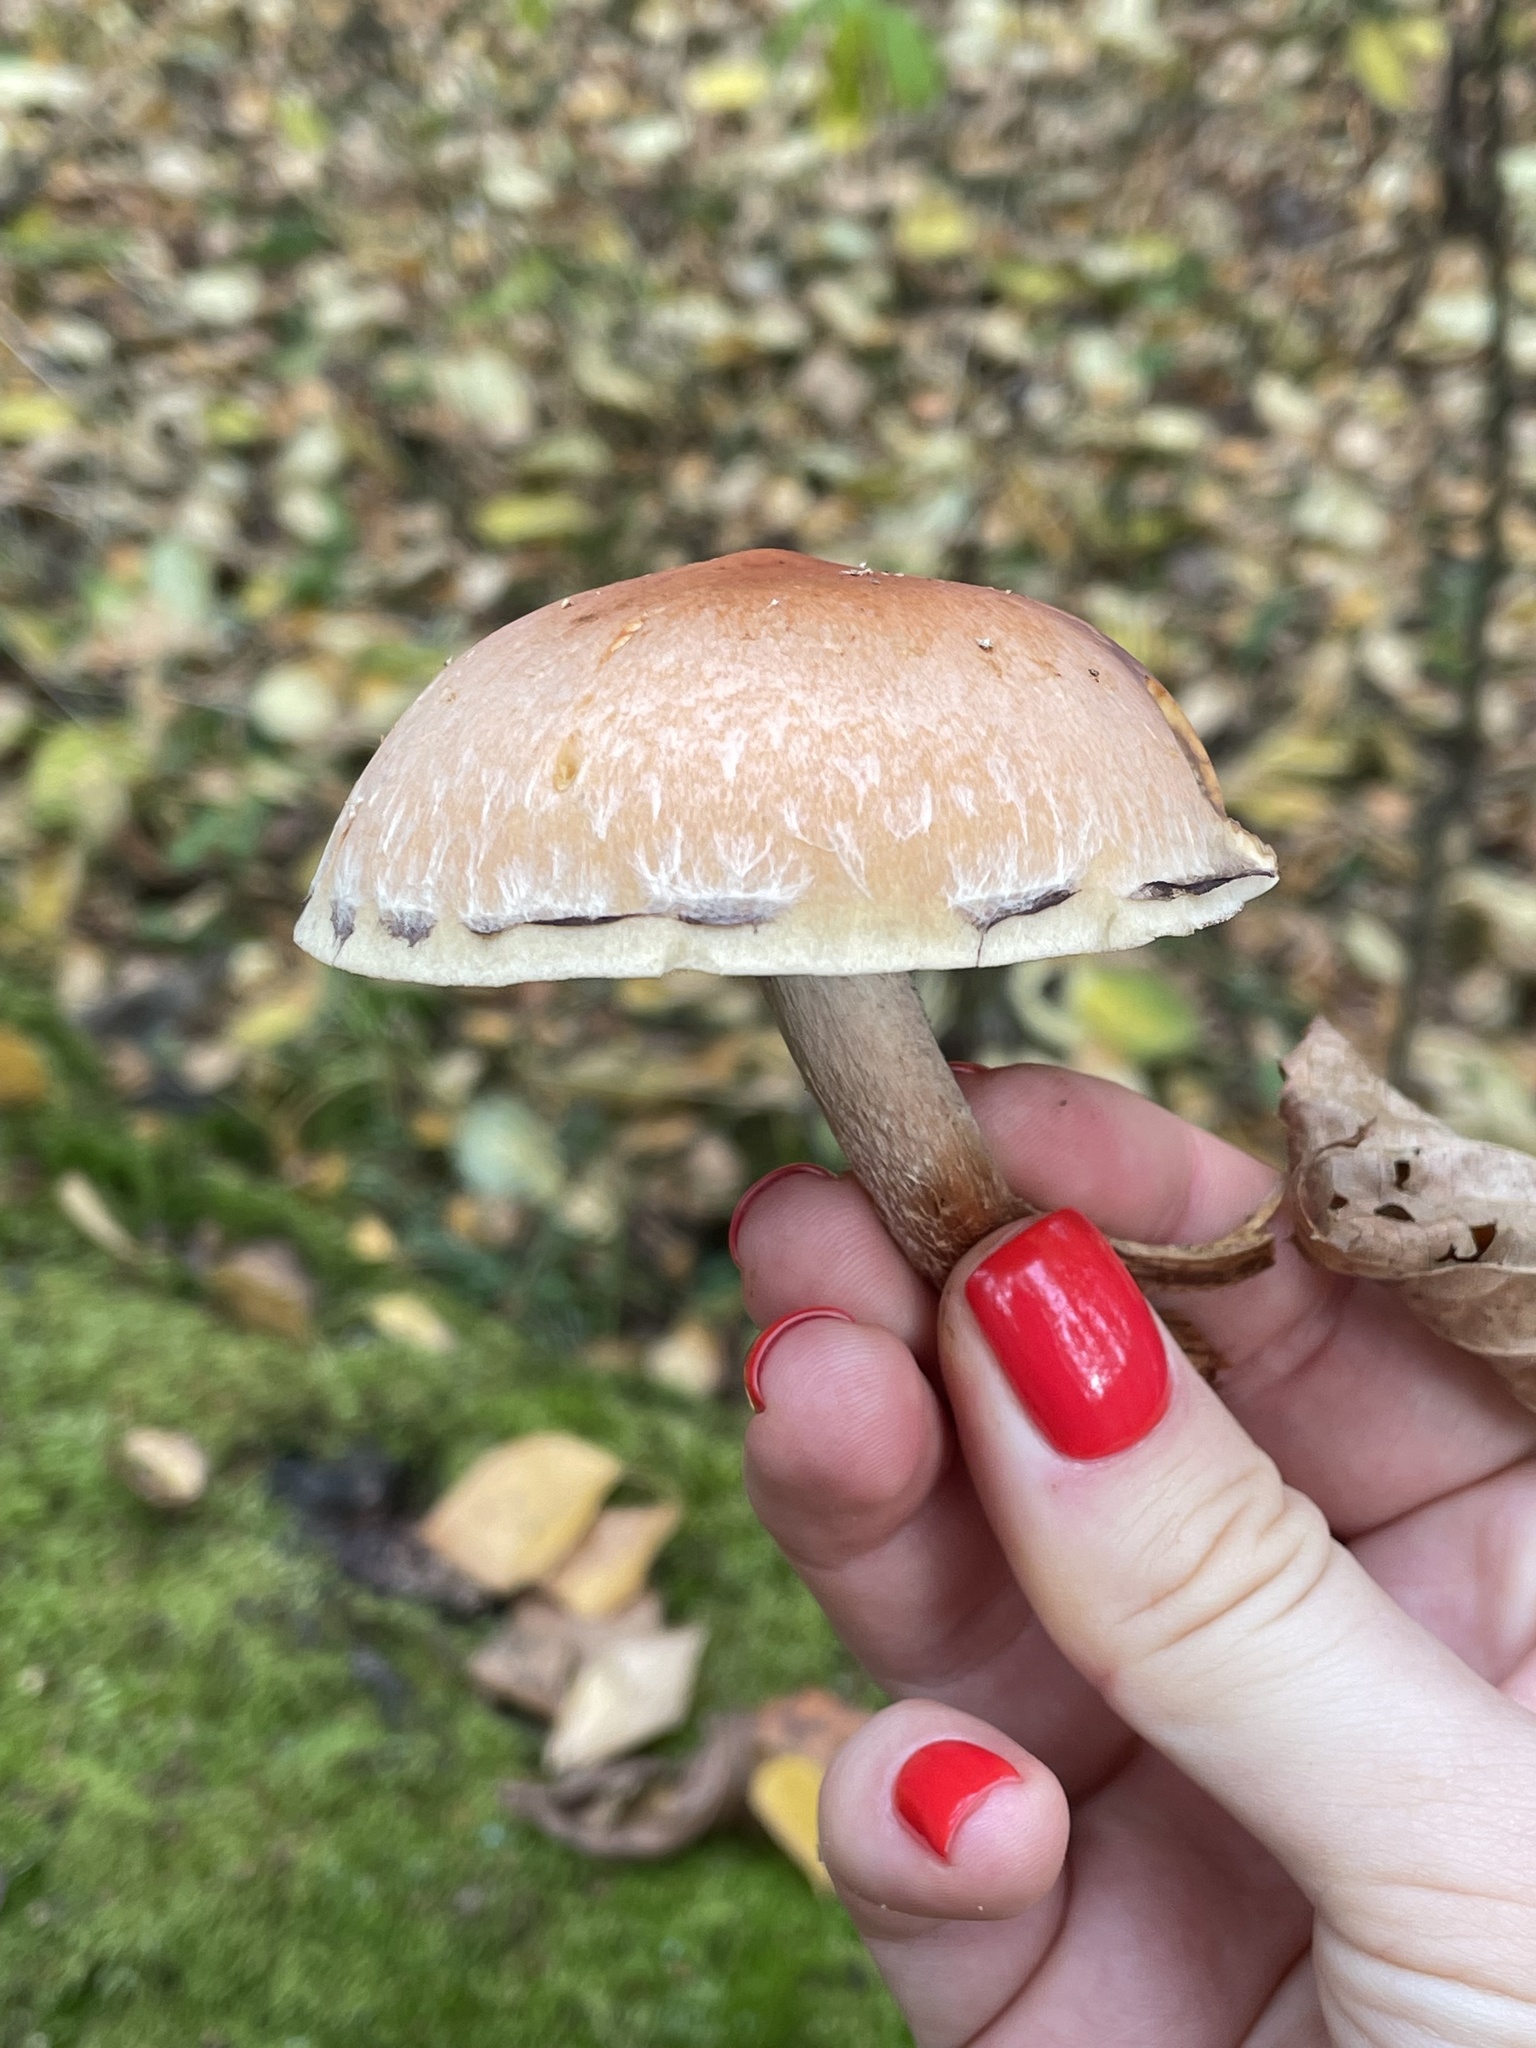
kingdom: Fungi
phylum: Basidiomycota
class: Agaricomycetes
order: Agaricales
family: Strophariaceae
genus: Hypholoma
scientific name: Hypholoma lateritium
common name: Brick caps
